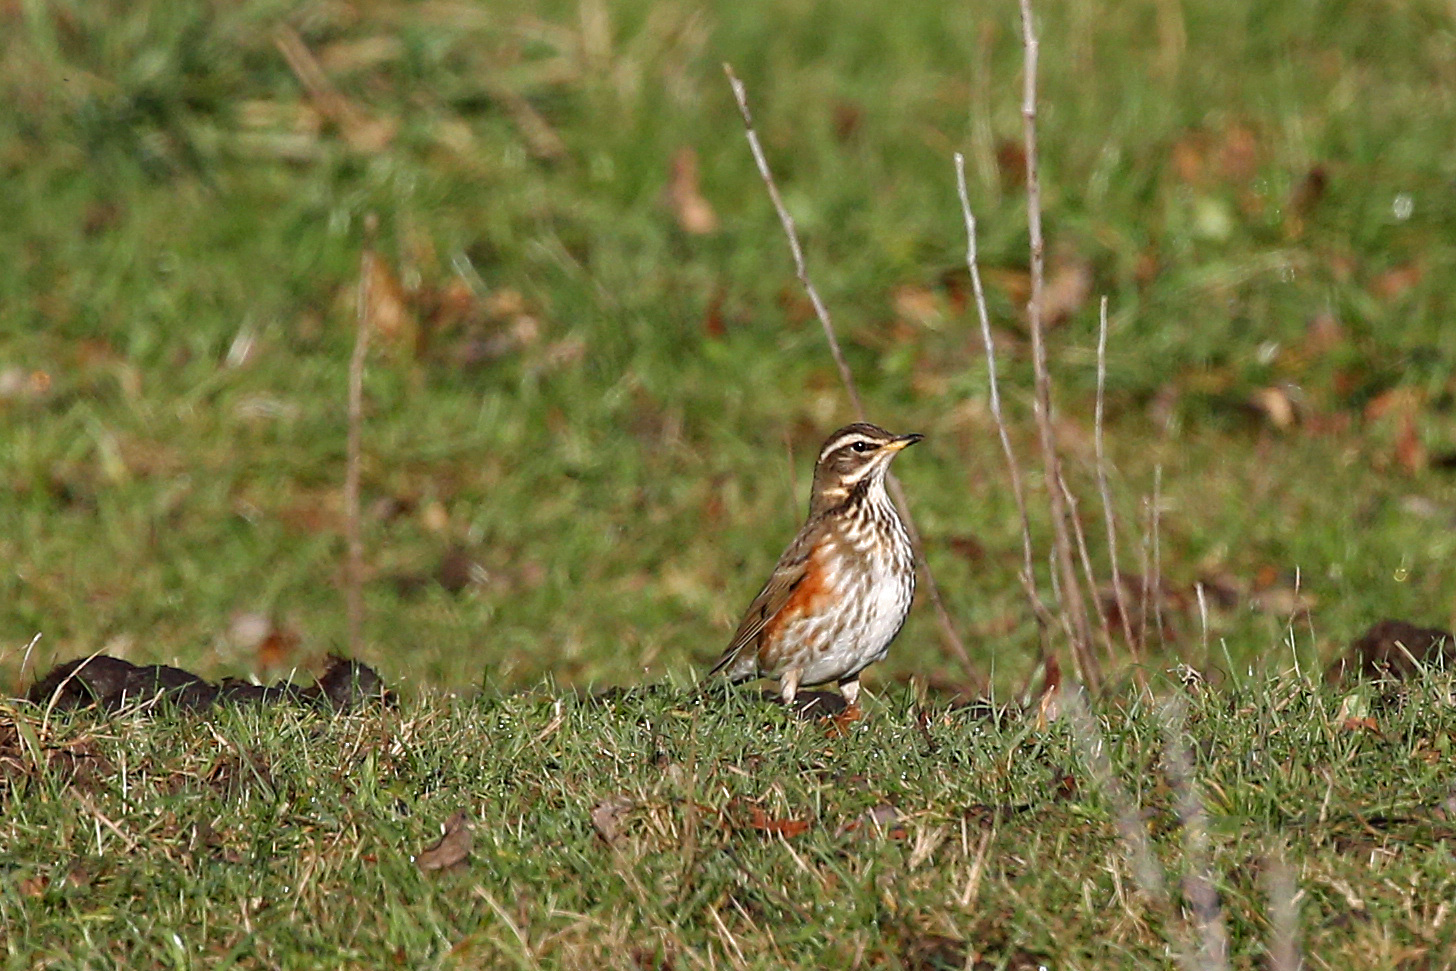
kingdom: Animalia
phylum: Chordata
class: Aves
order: Passeriformes
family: Turdidae
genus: Turdus
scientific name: Turdus iliacus
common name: Redwing
